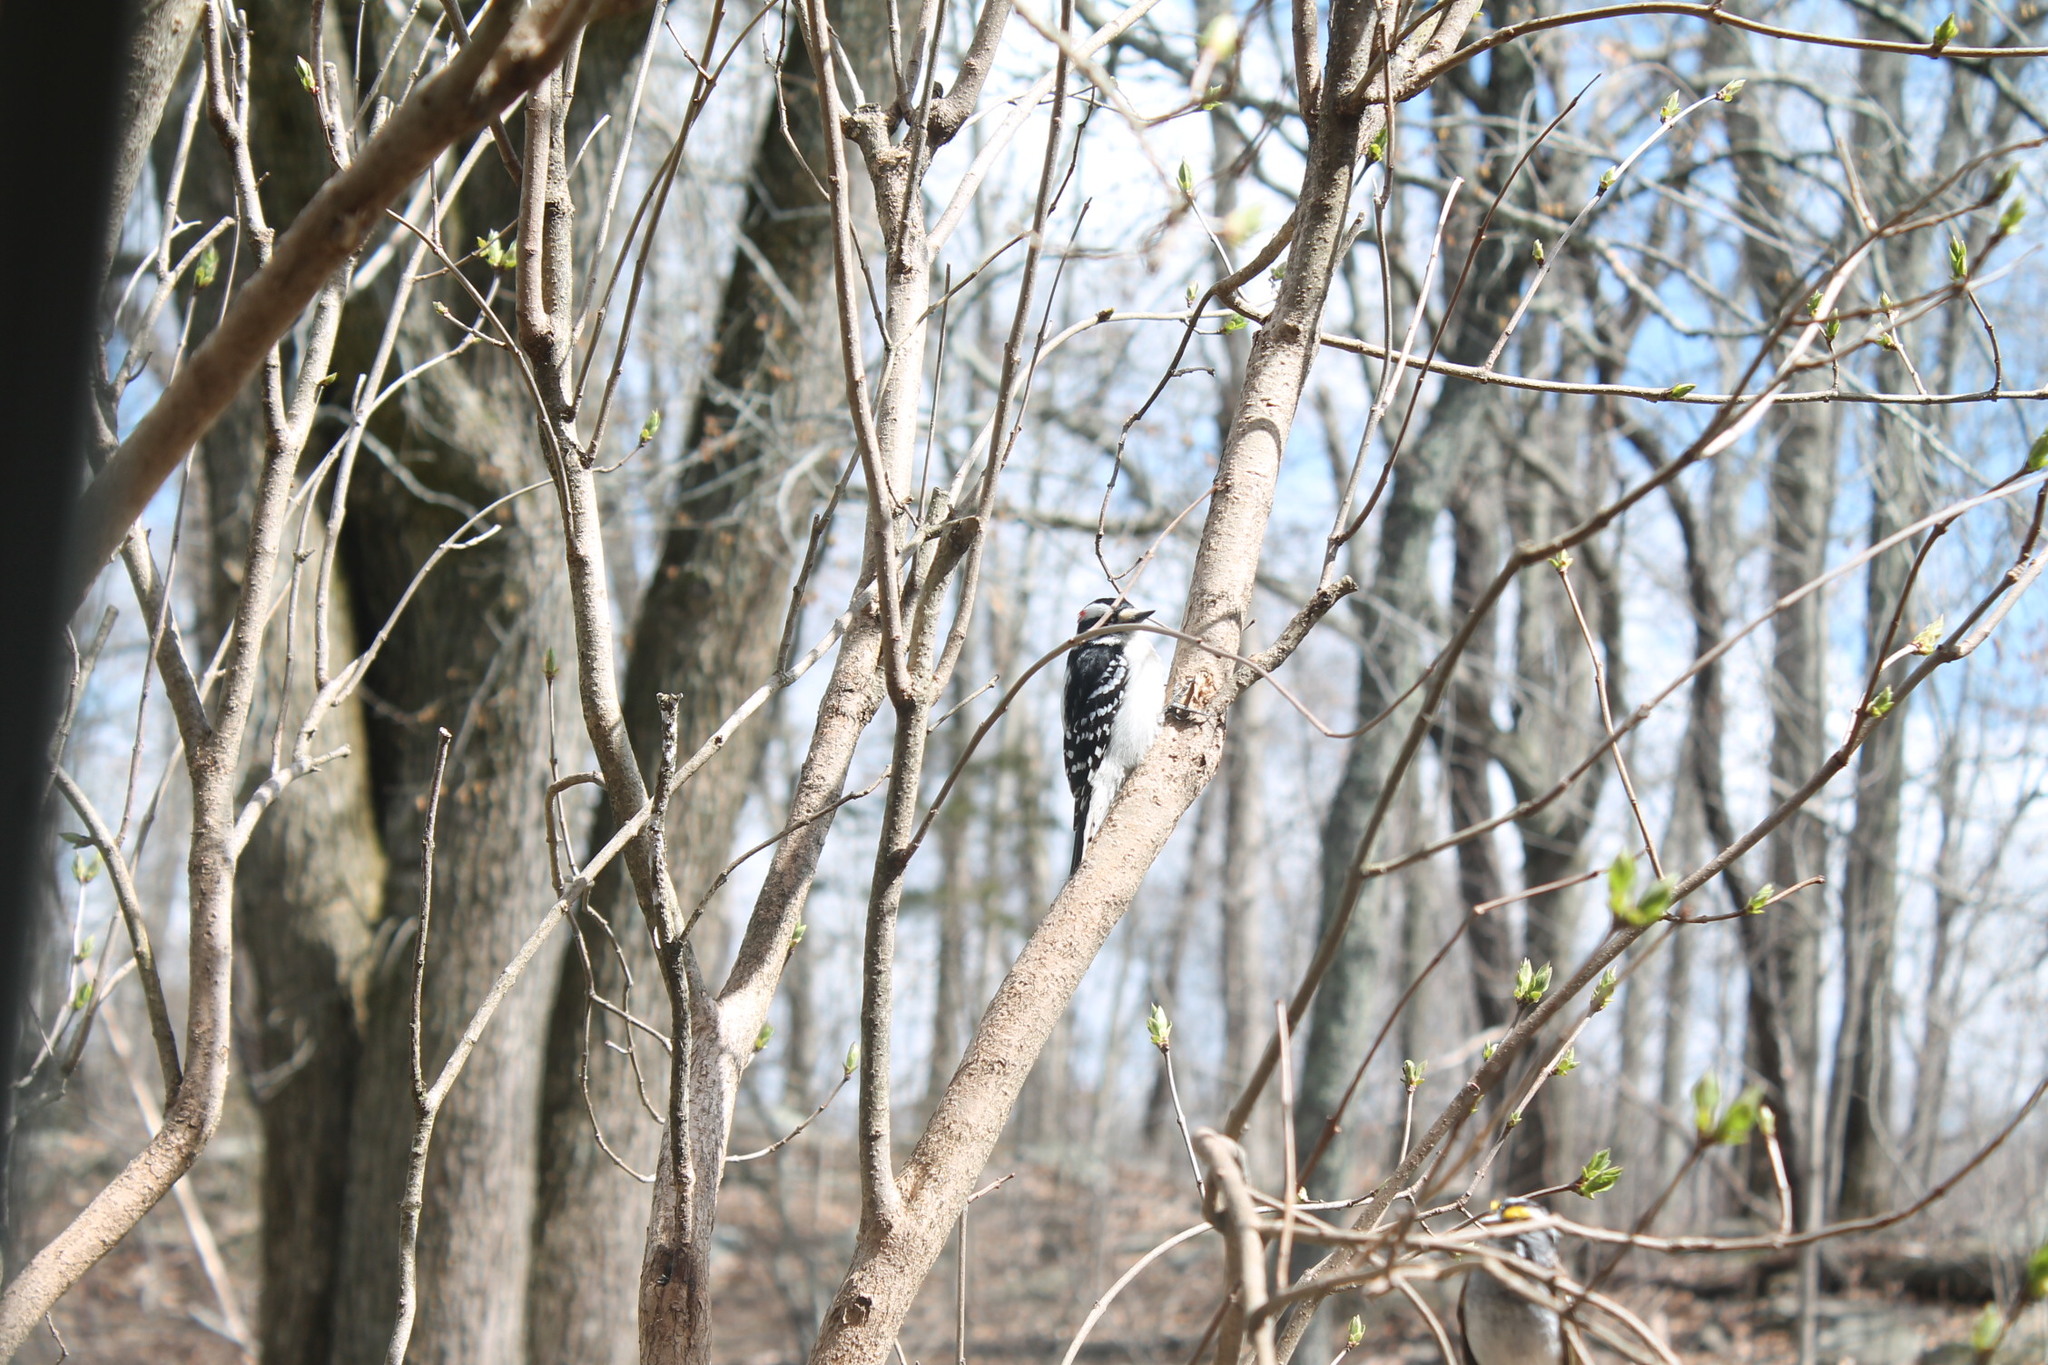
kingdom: Animalia
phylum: Chordata
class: Aves
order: Piciformes
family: Picidae
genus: Dryobates
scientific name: Dryobates pubescens
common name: Downy woodpecker
